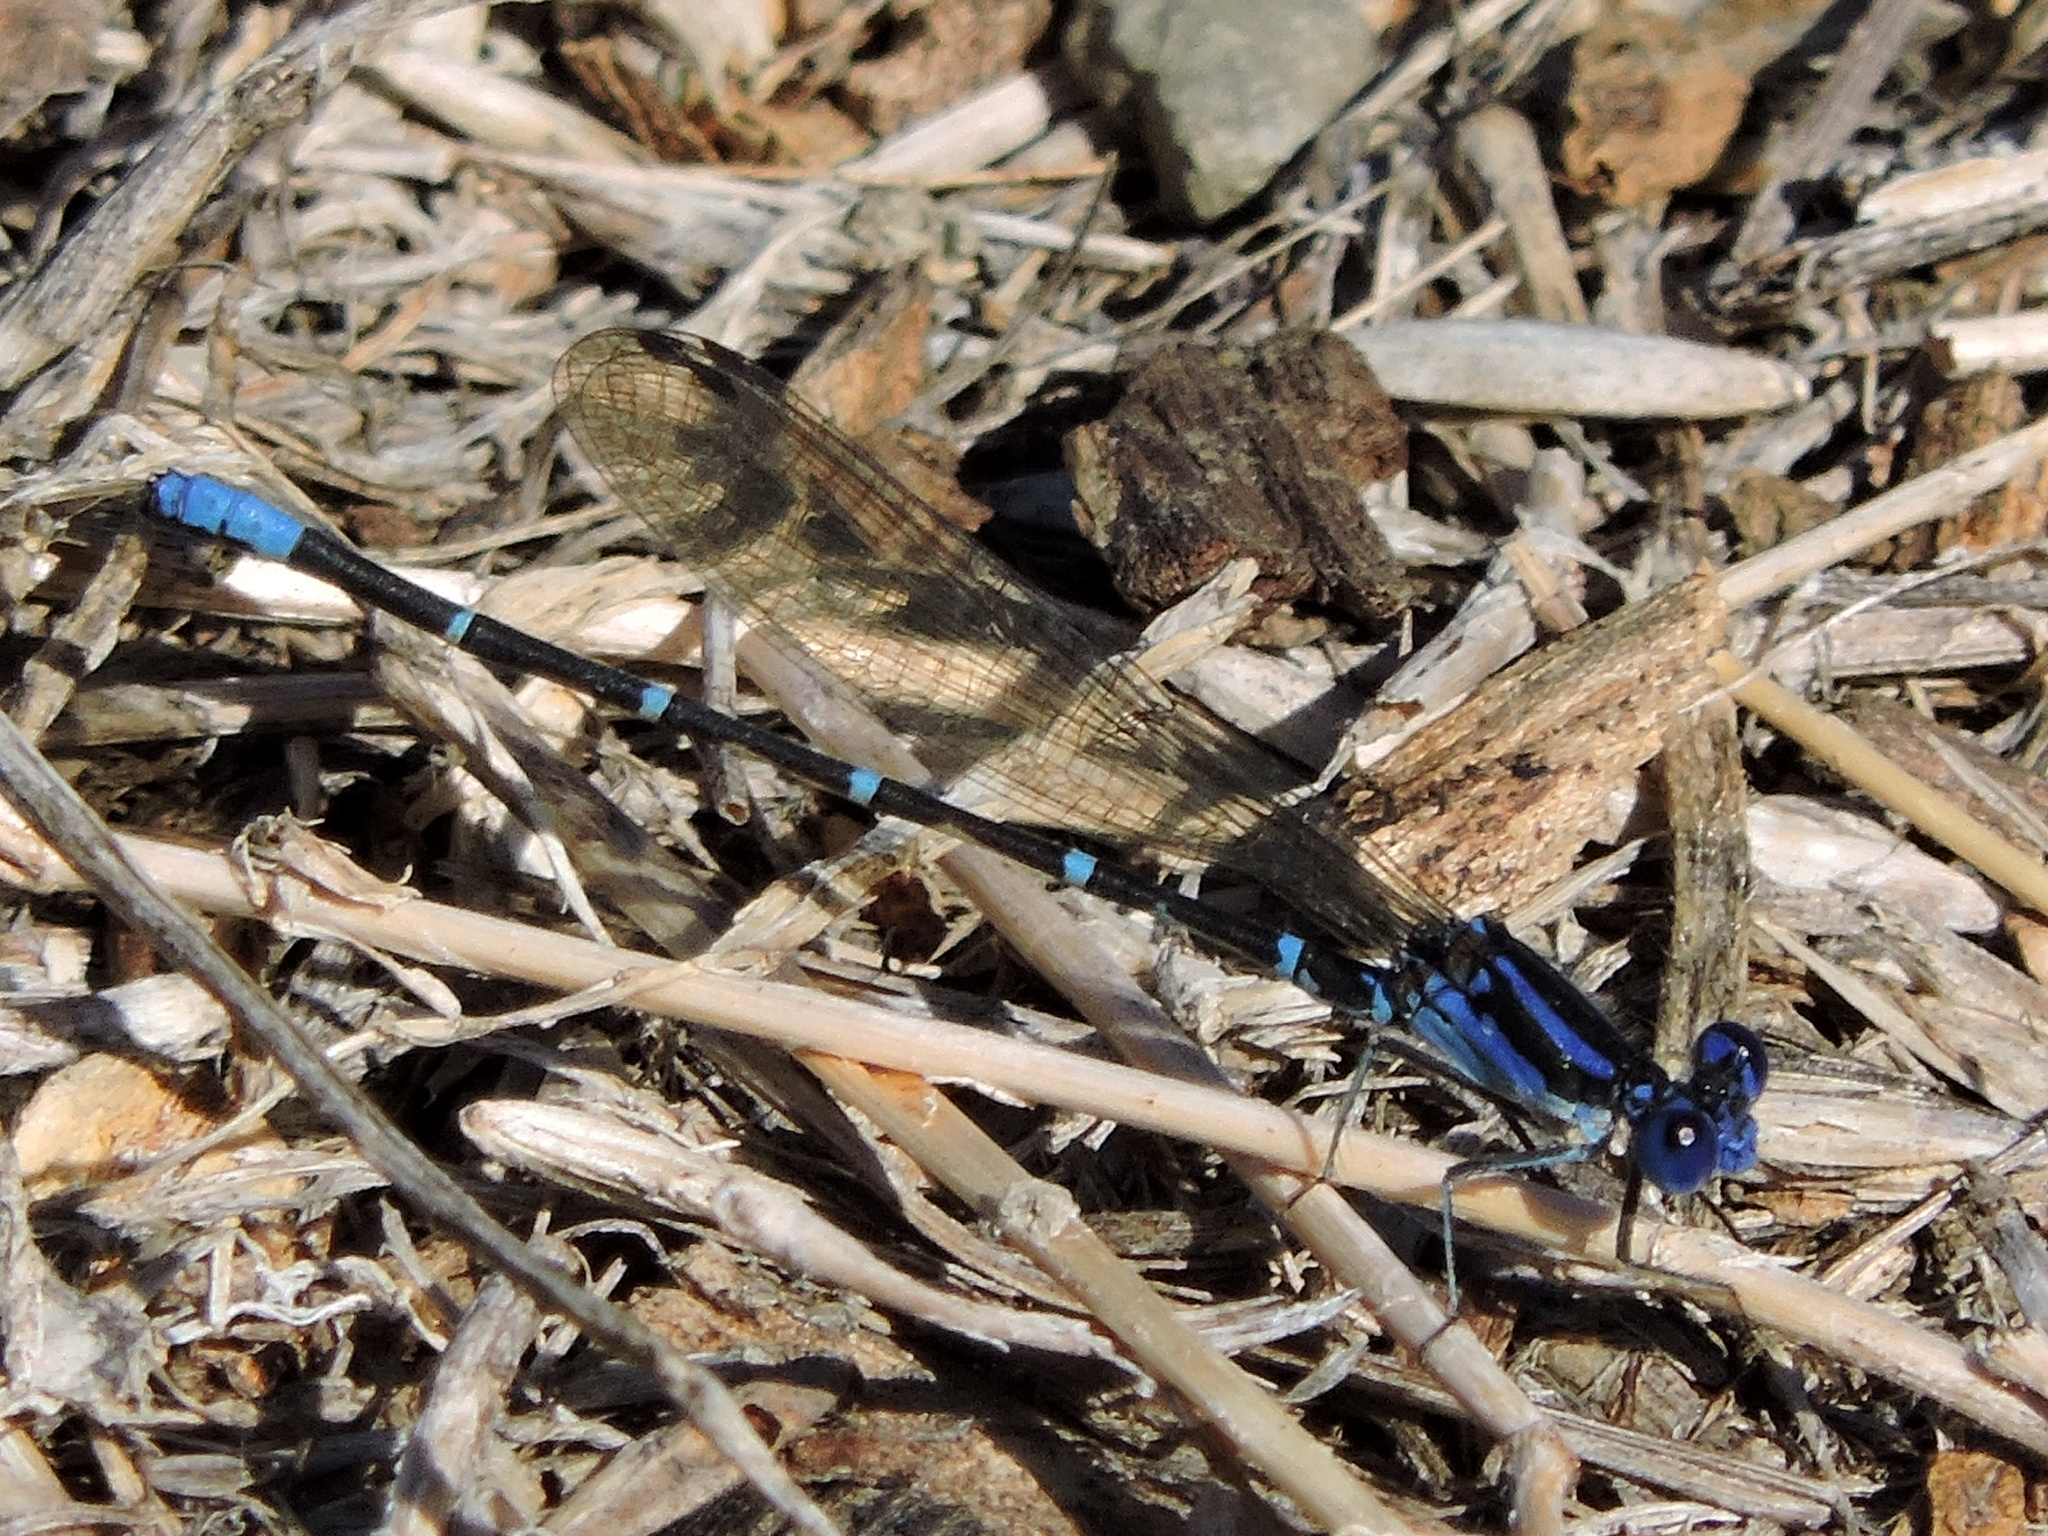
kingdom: Animalia
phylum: Arthropoda
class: Insecta
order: Odonata
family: Coenagrionidae
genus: Argia
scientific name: Argia sedula
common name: Blue-ringed dancer
